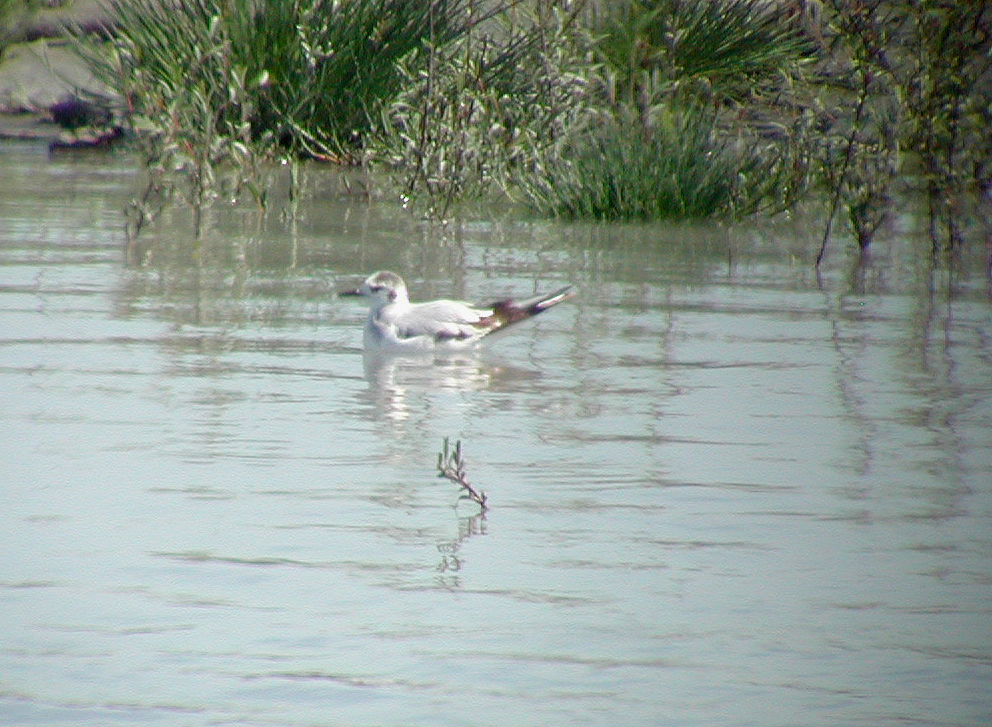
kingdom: Animalia
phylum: Chordata
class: Aves
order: Charadriiformes
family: Laridae
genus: Hydrocoloeus
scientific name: Hydrocoloeus minutus
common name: Little gull
